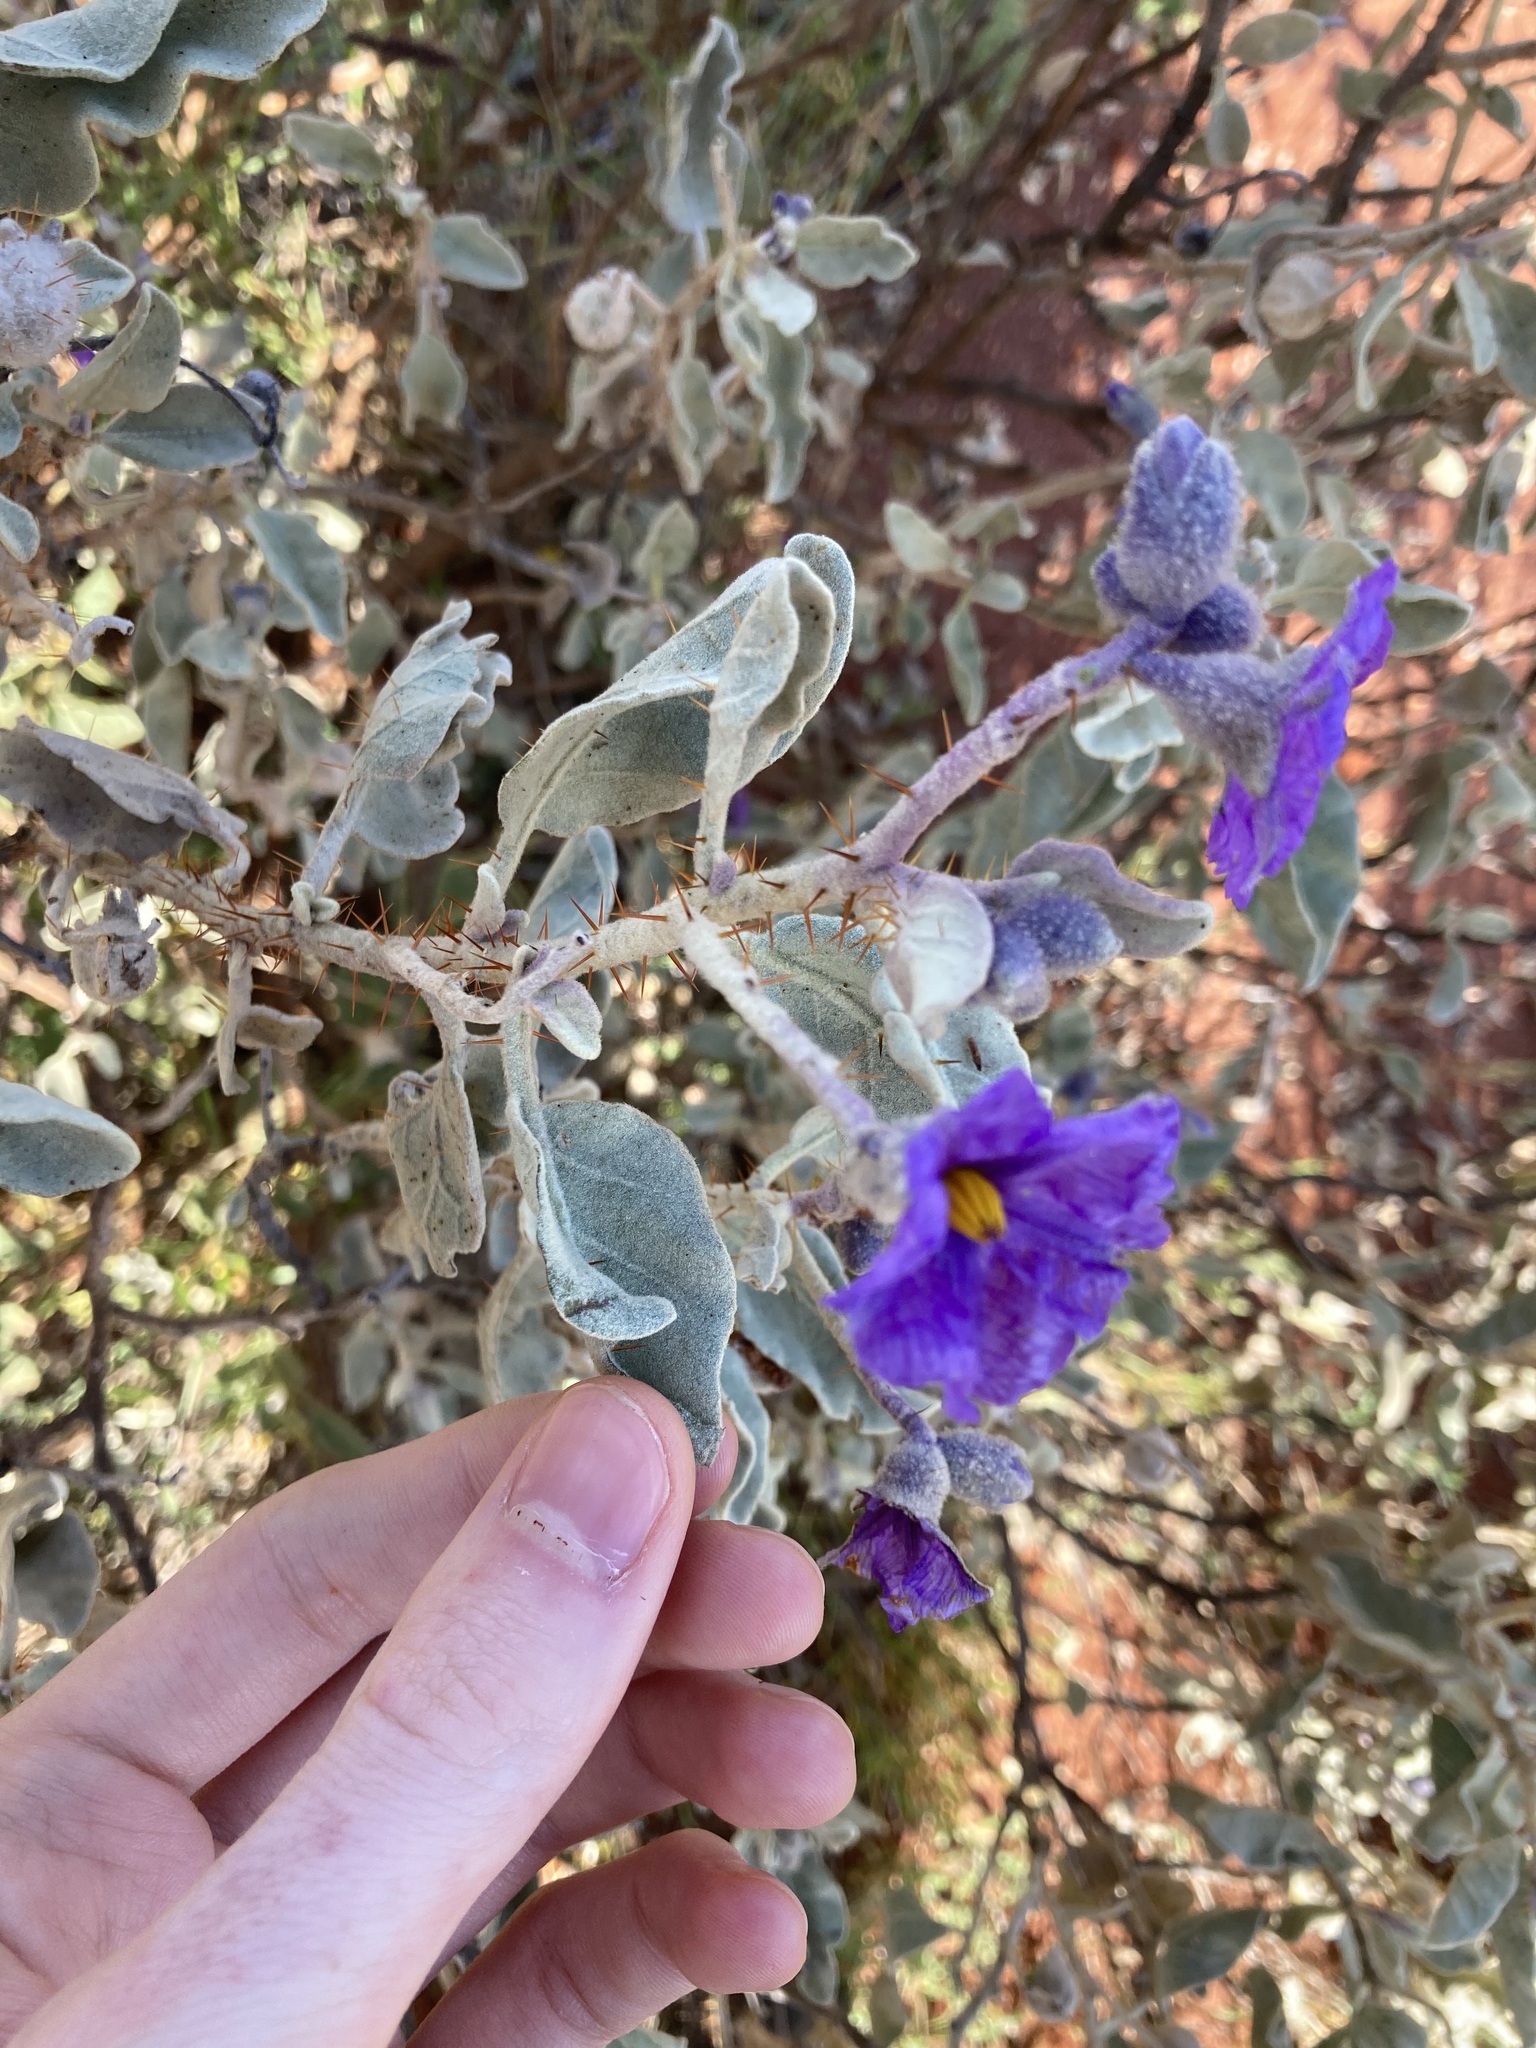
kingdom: Plantae
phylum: Tracheophyta
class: Magnoliopsida
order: Solanales
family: Solanaceae
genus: Solanum
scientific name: Solanum lasiophyllum
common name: Flannelbush
